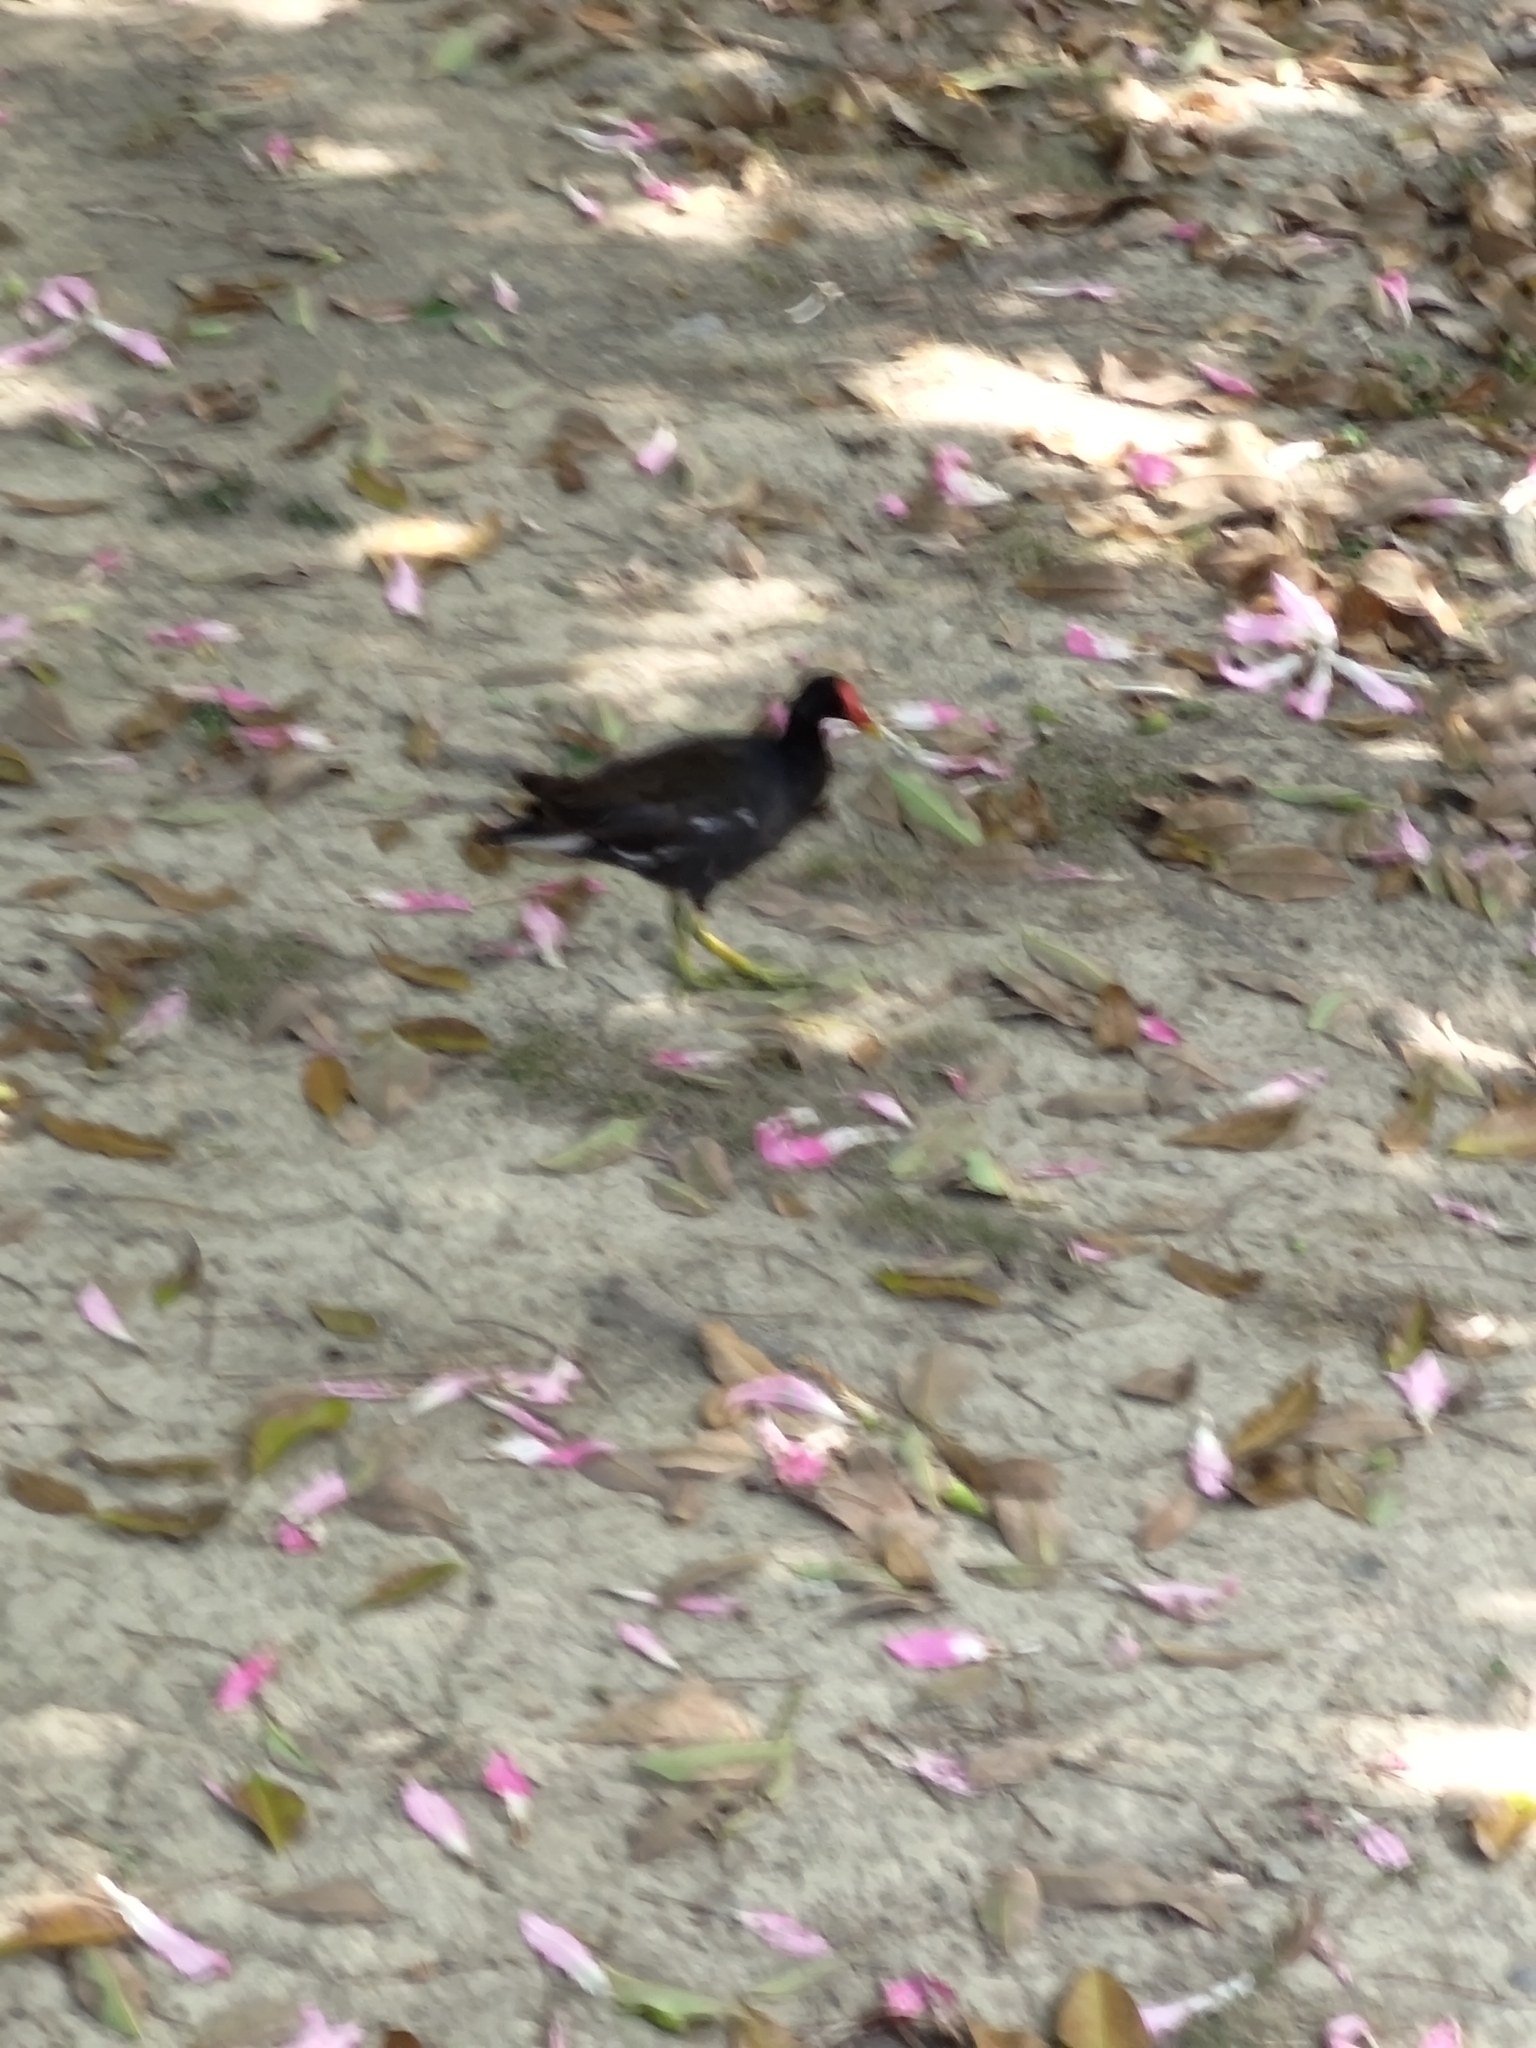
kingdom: Animalia
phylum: Chordata
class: Aves
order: Gruiformes
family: Rallidae
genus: Gallinula
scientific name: Gallinula chloropus
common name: Common moorhen
